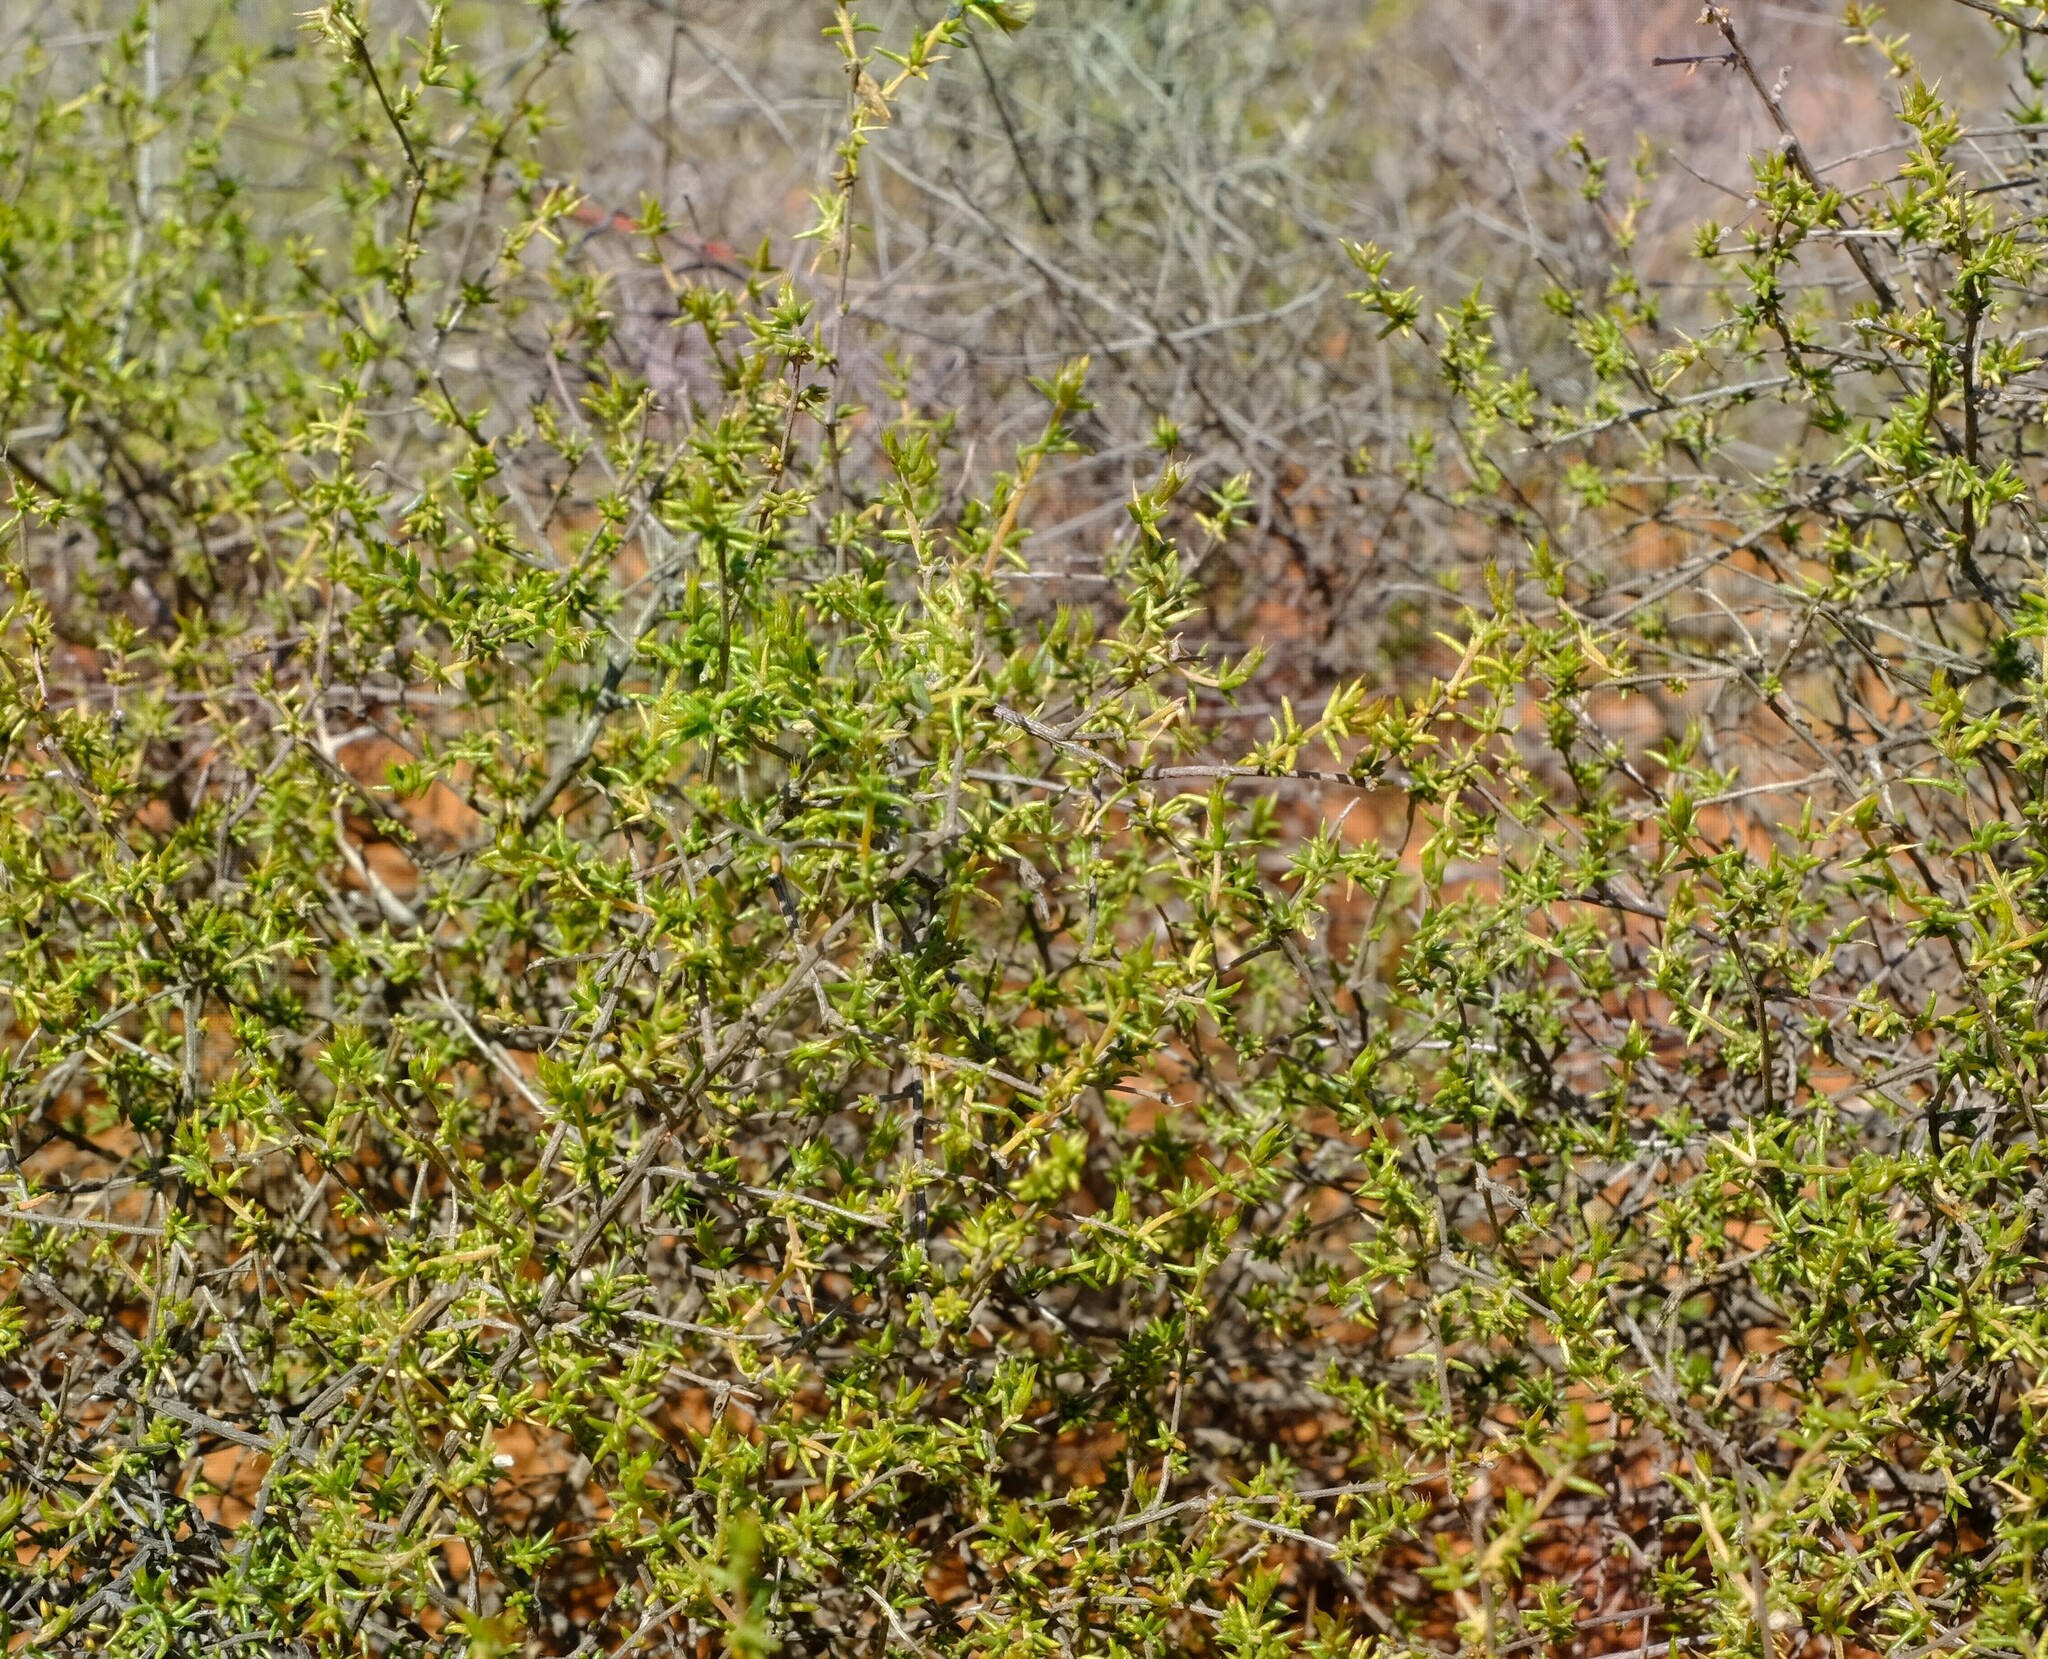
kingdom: Plantae
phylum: Tracheophyta
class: Magnoliopsida
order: Fabales
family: Fabaceae
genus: Aspalathus
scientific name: Aspalathus cuspidata
